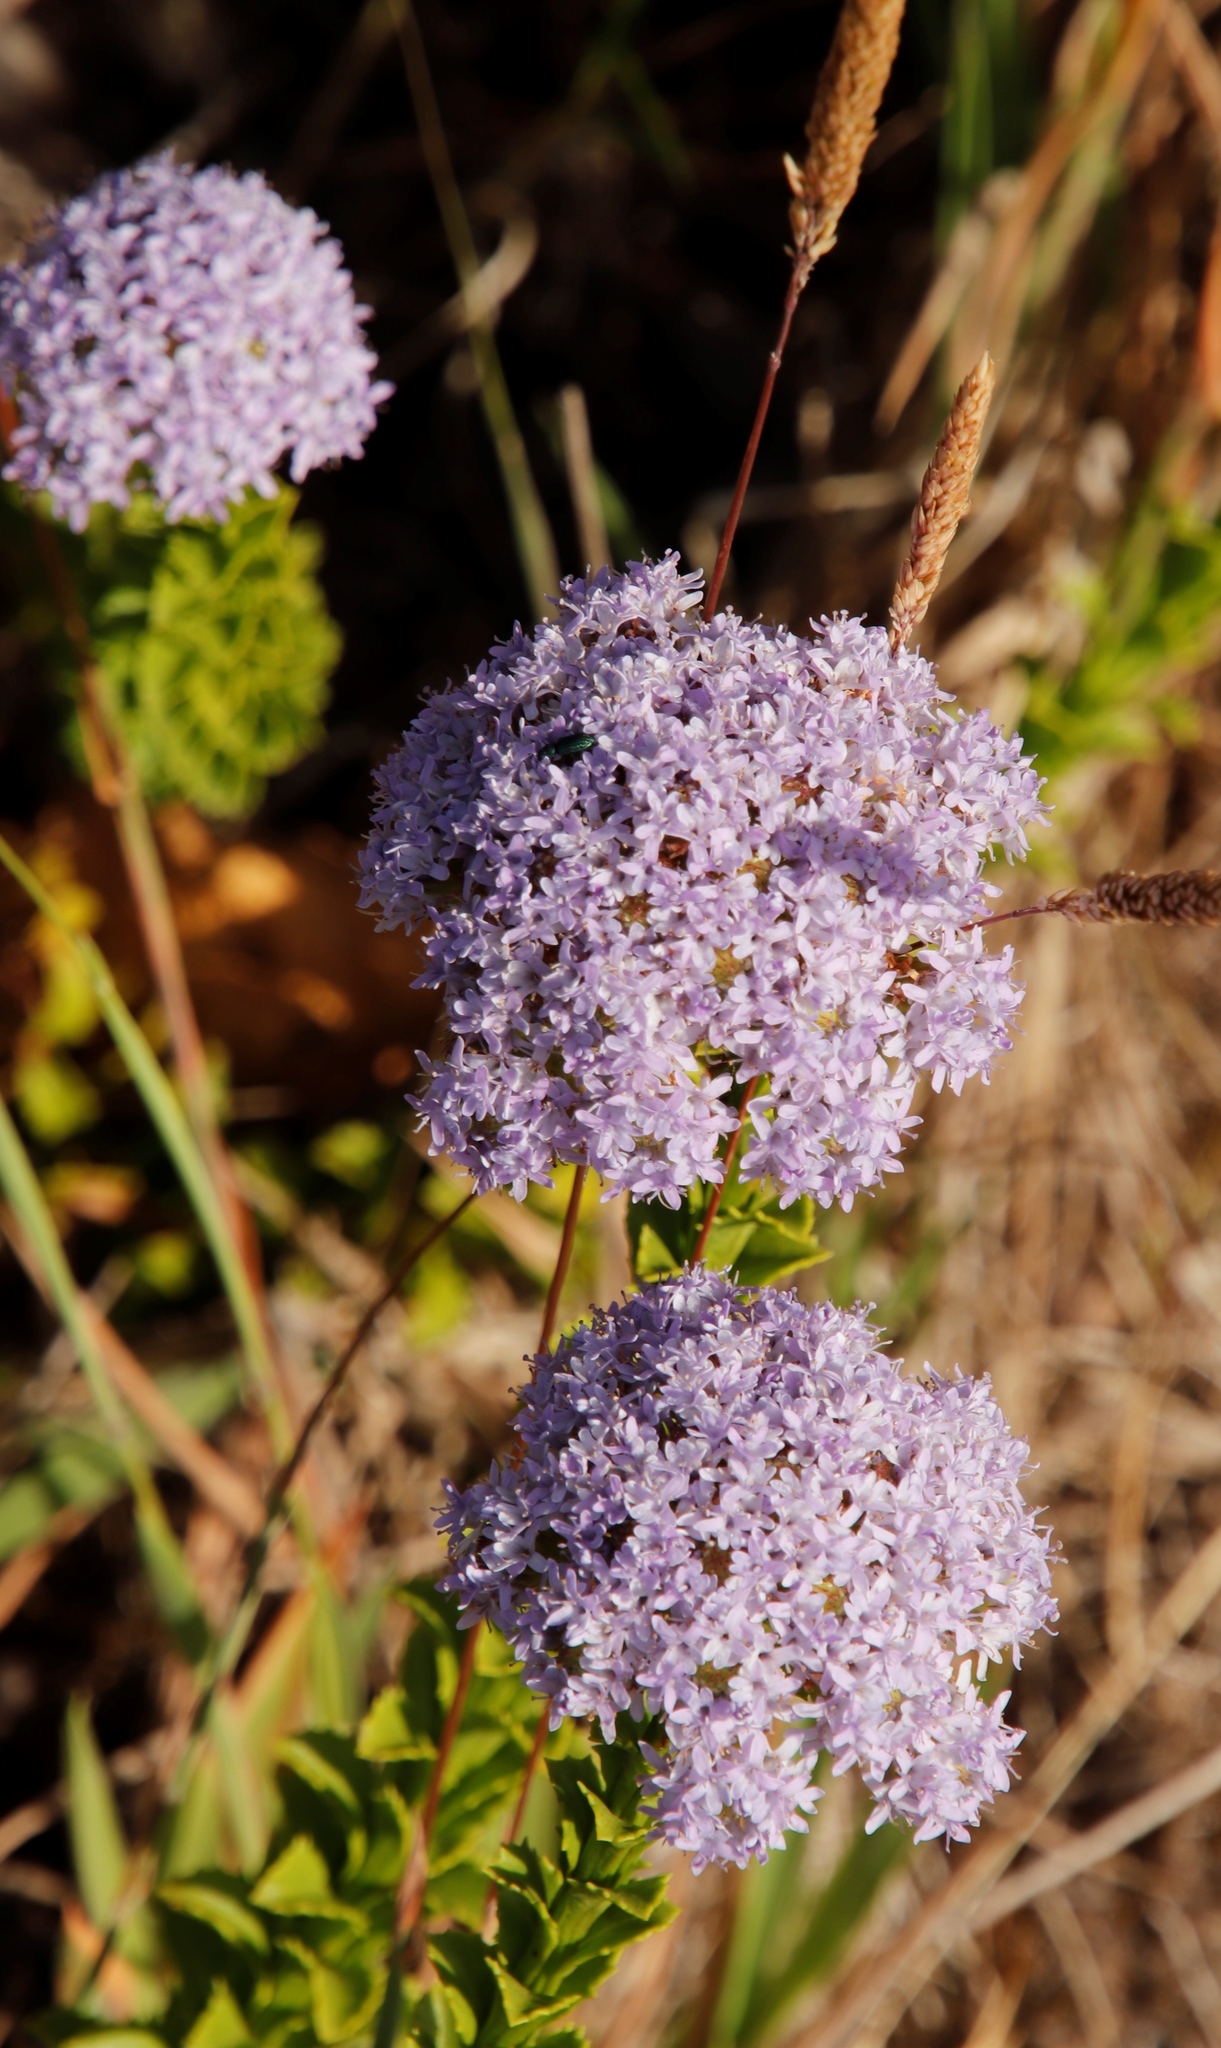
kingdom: Plantae
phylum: Tracheophyta
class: Magnoliopsida
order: Lamiales
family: Scrophulariaceae
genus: Pseudoselago
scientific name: Pseudoselago serrata
